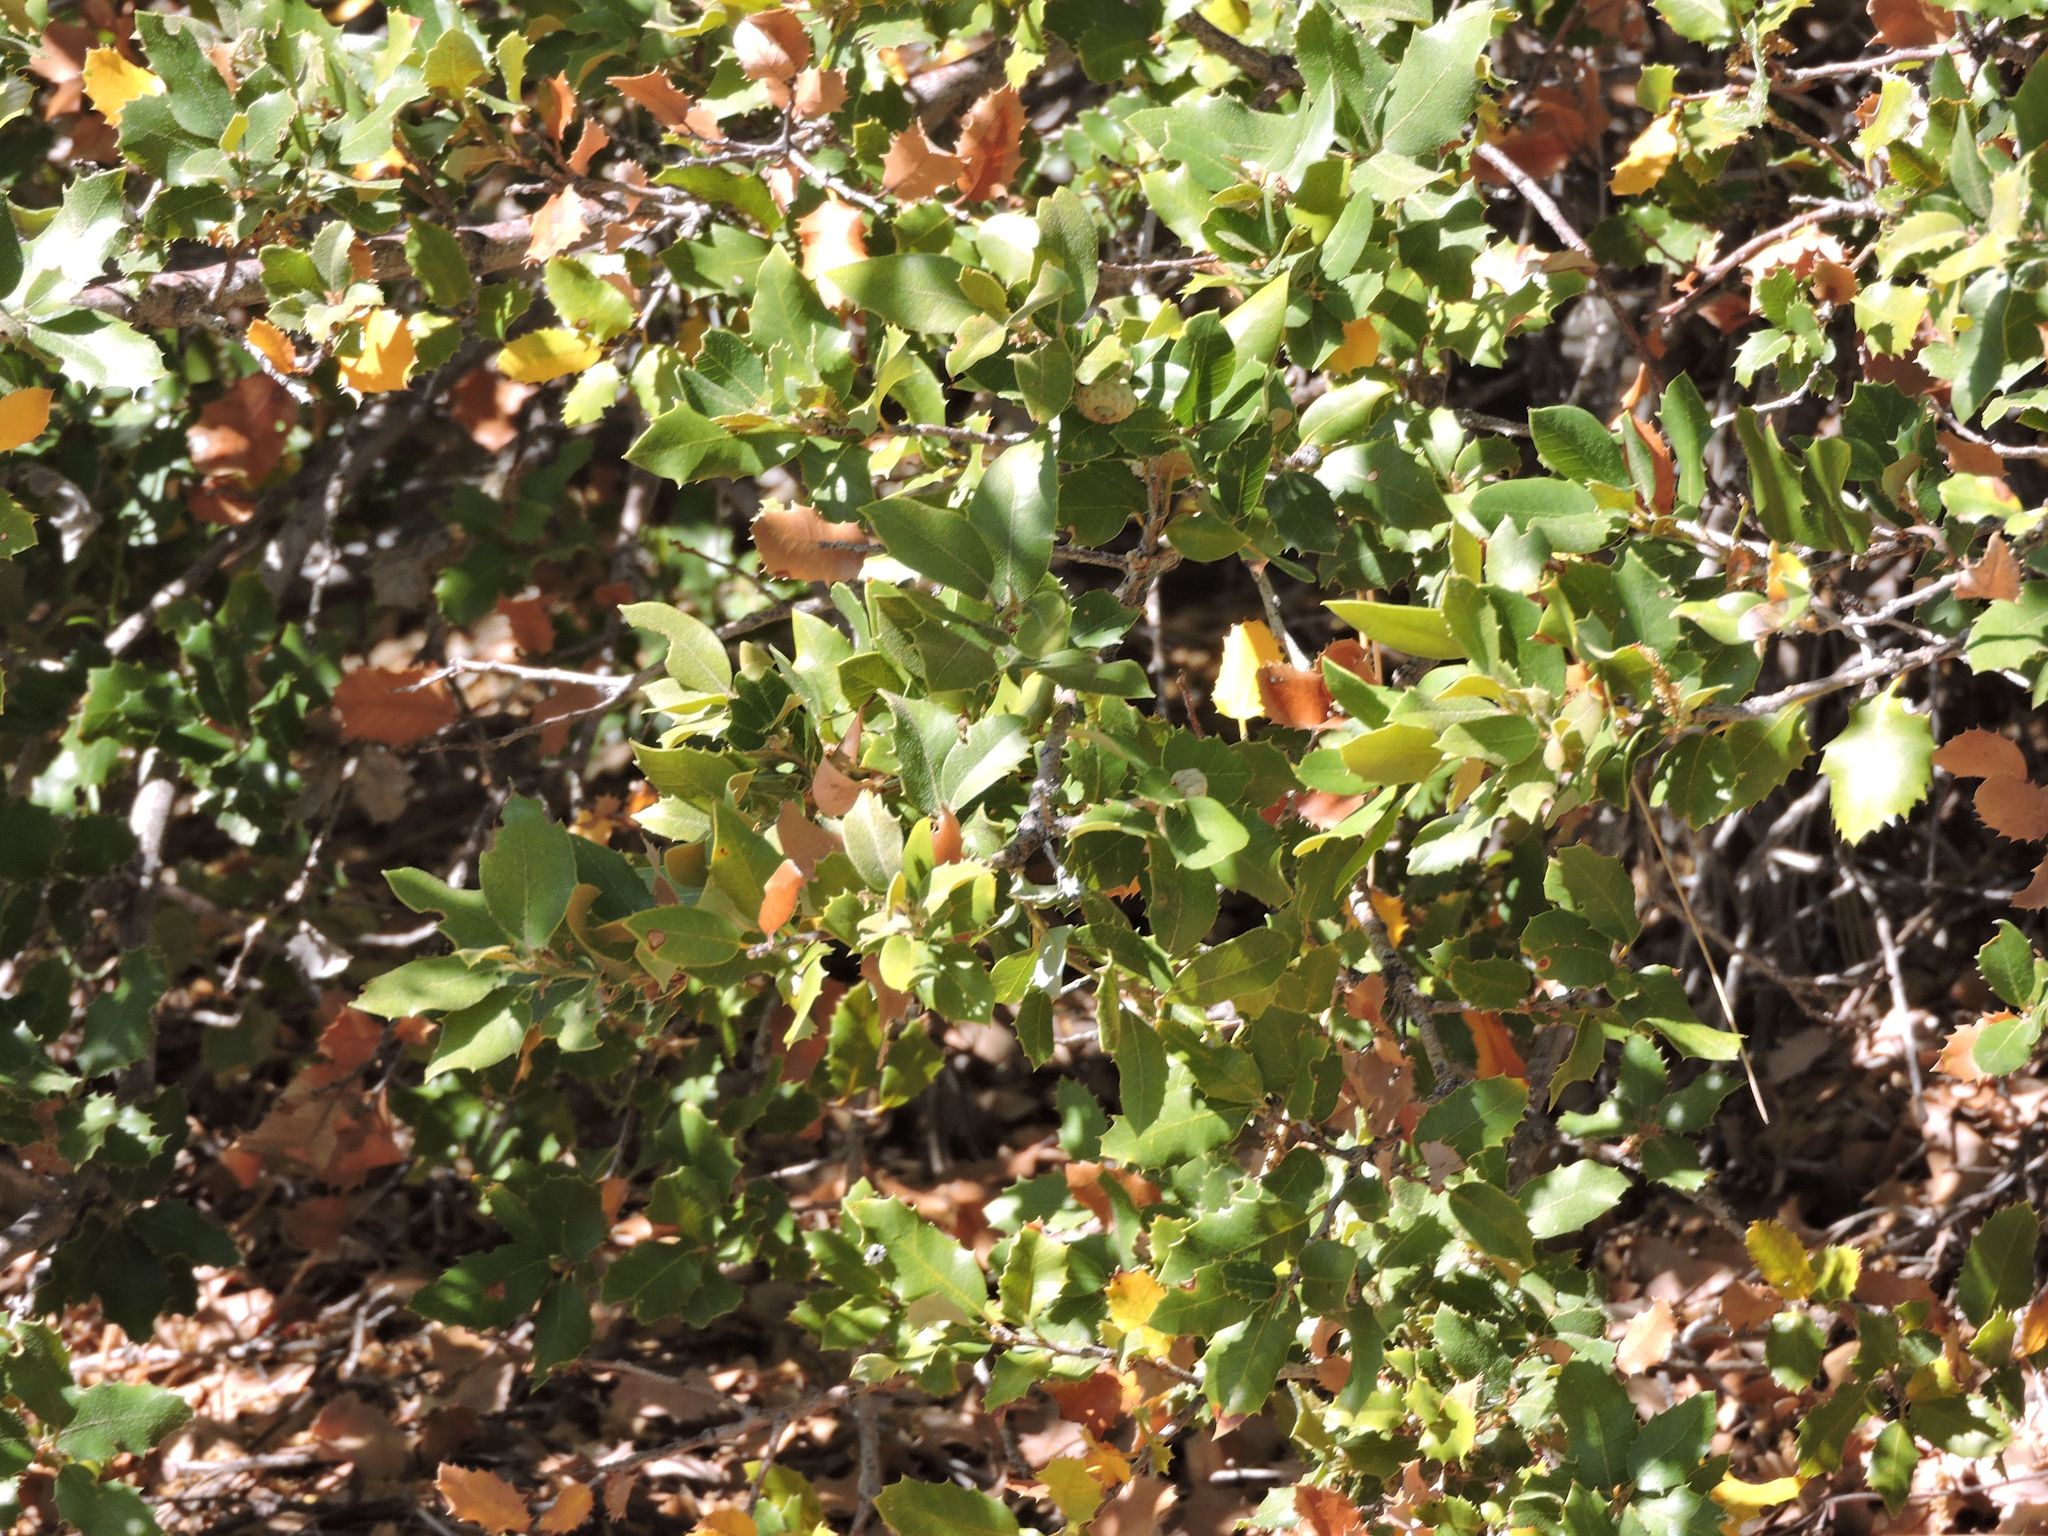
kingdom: Plantae
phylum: Tracheophyta
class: Magnoliopsida
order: Fagales
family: Fagaceae
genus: Quercus
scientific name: Quercus chrysolepis
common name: Canyon live oak
